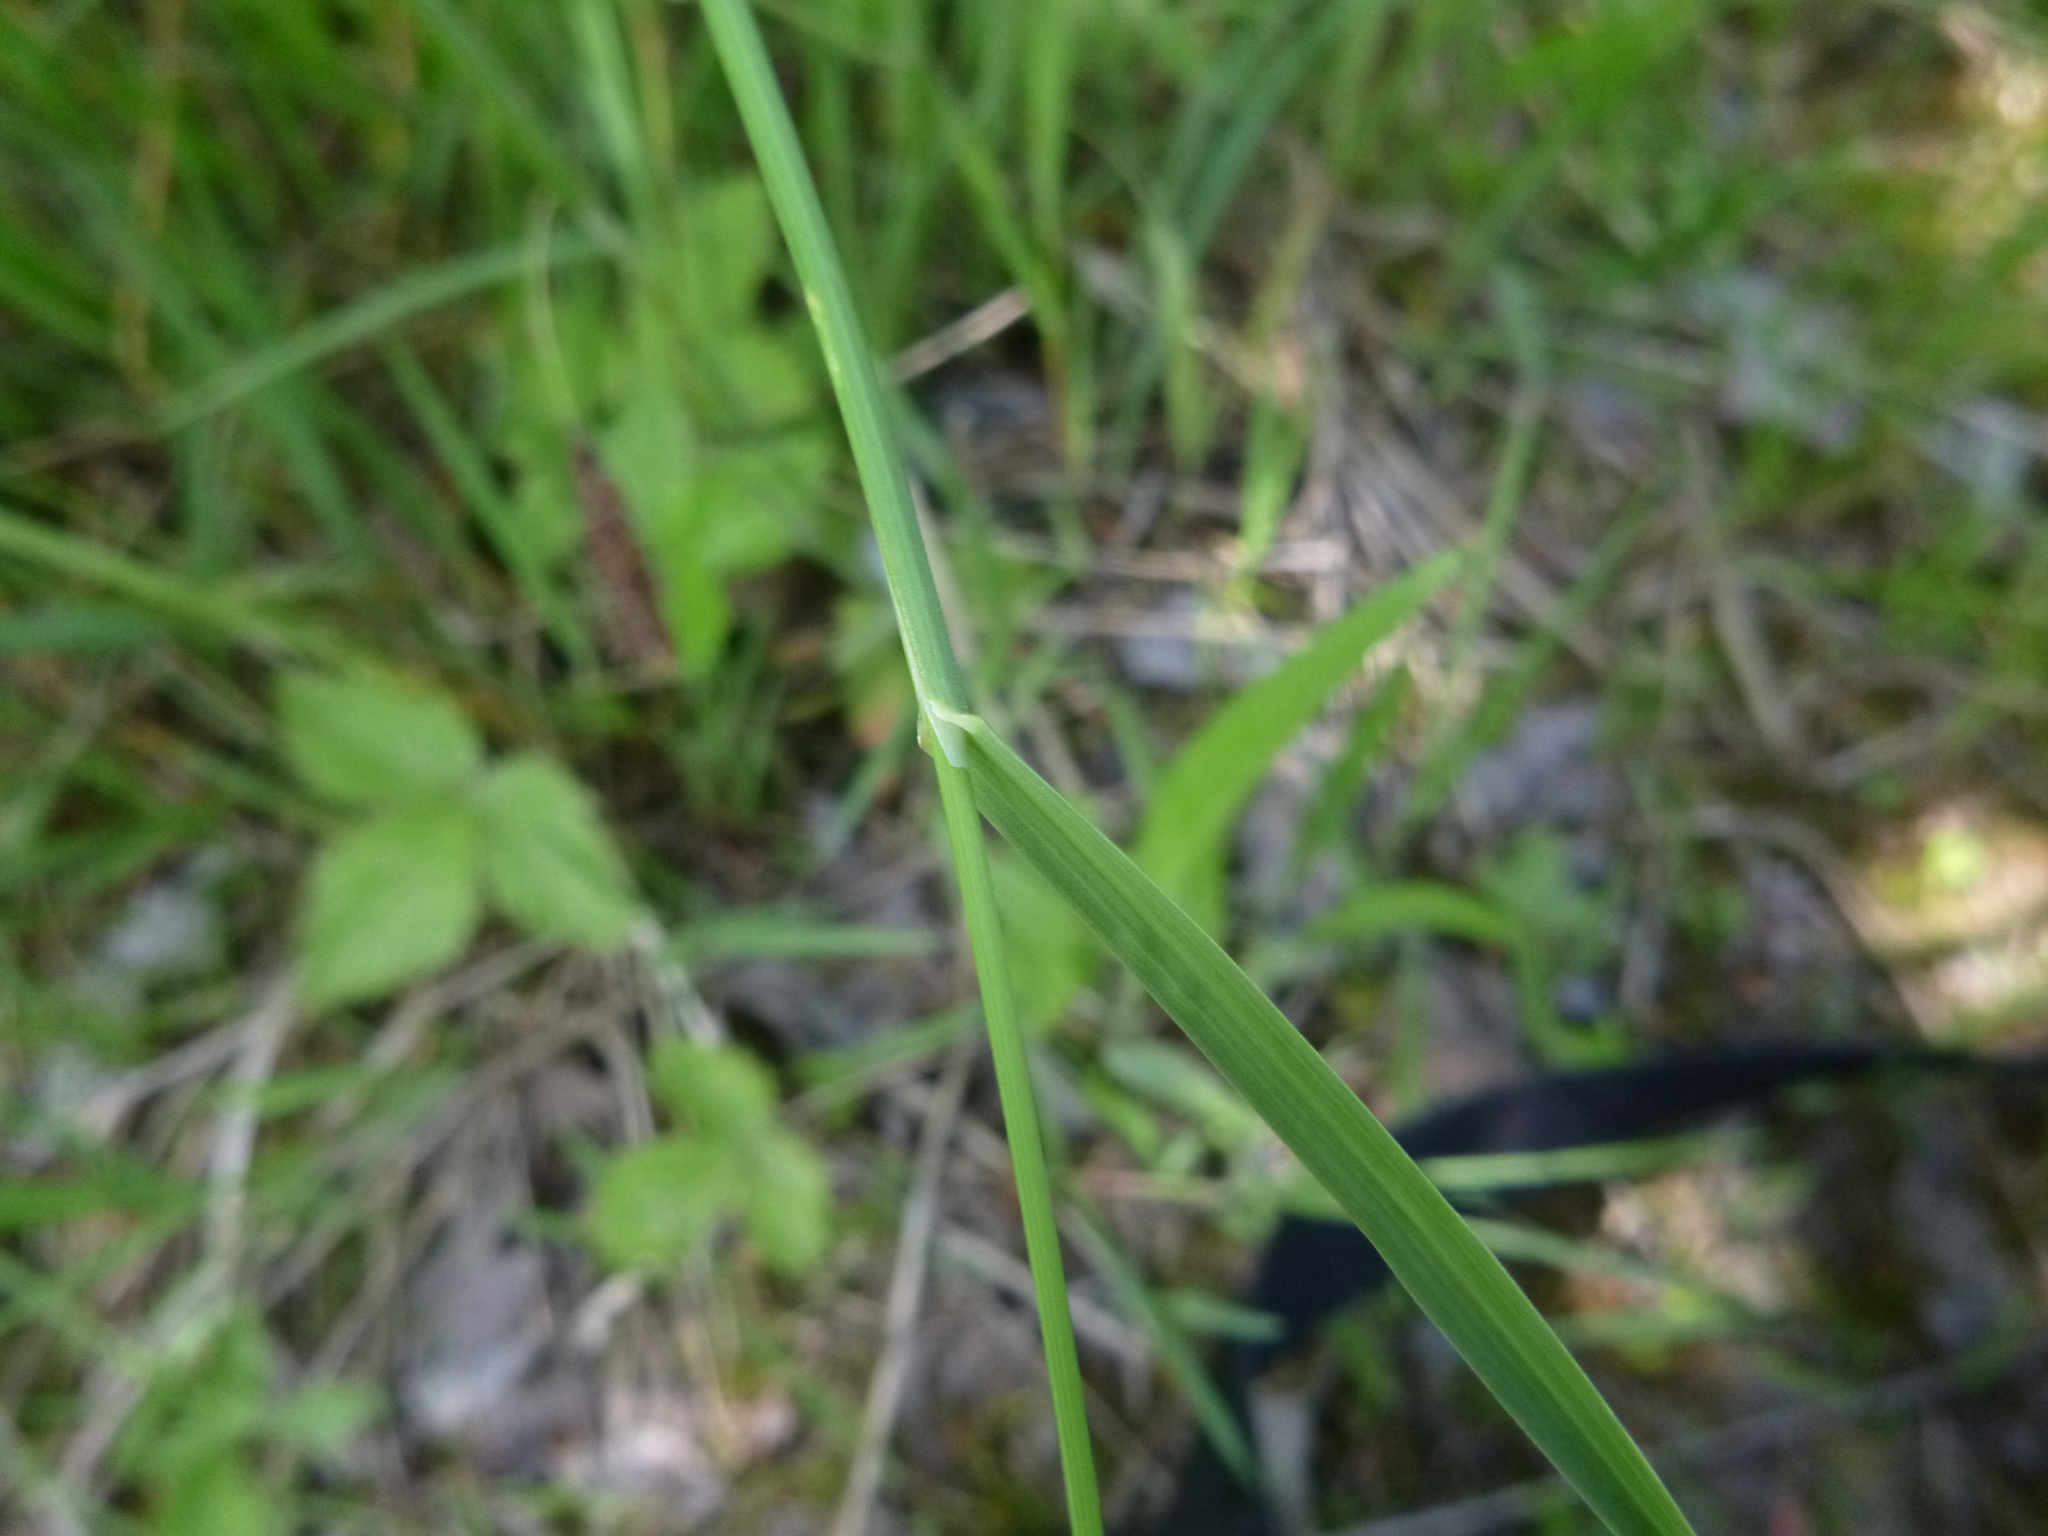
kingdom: Plantae
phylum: Tracheophyta
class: Liliopsida
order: Poales
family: Poaceae
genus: Poa
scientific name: Poa compressa
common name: Canada bluegrass
